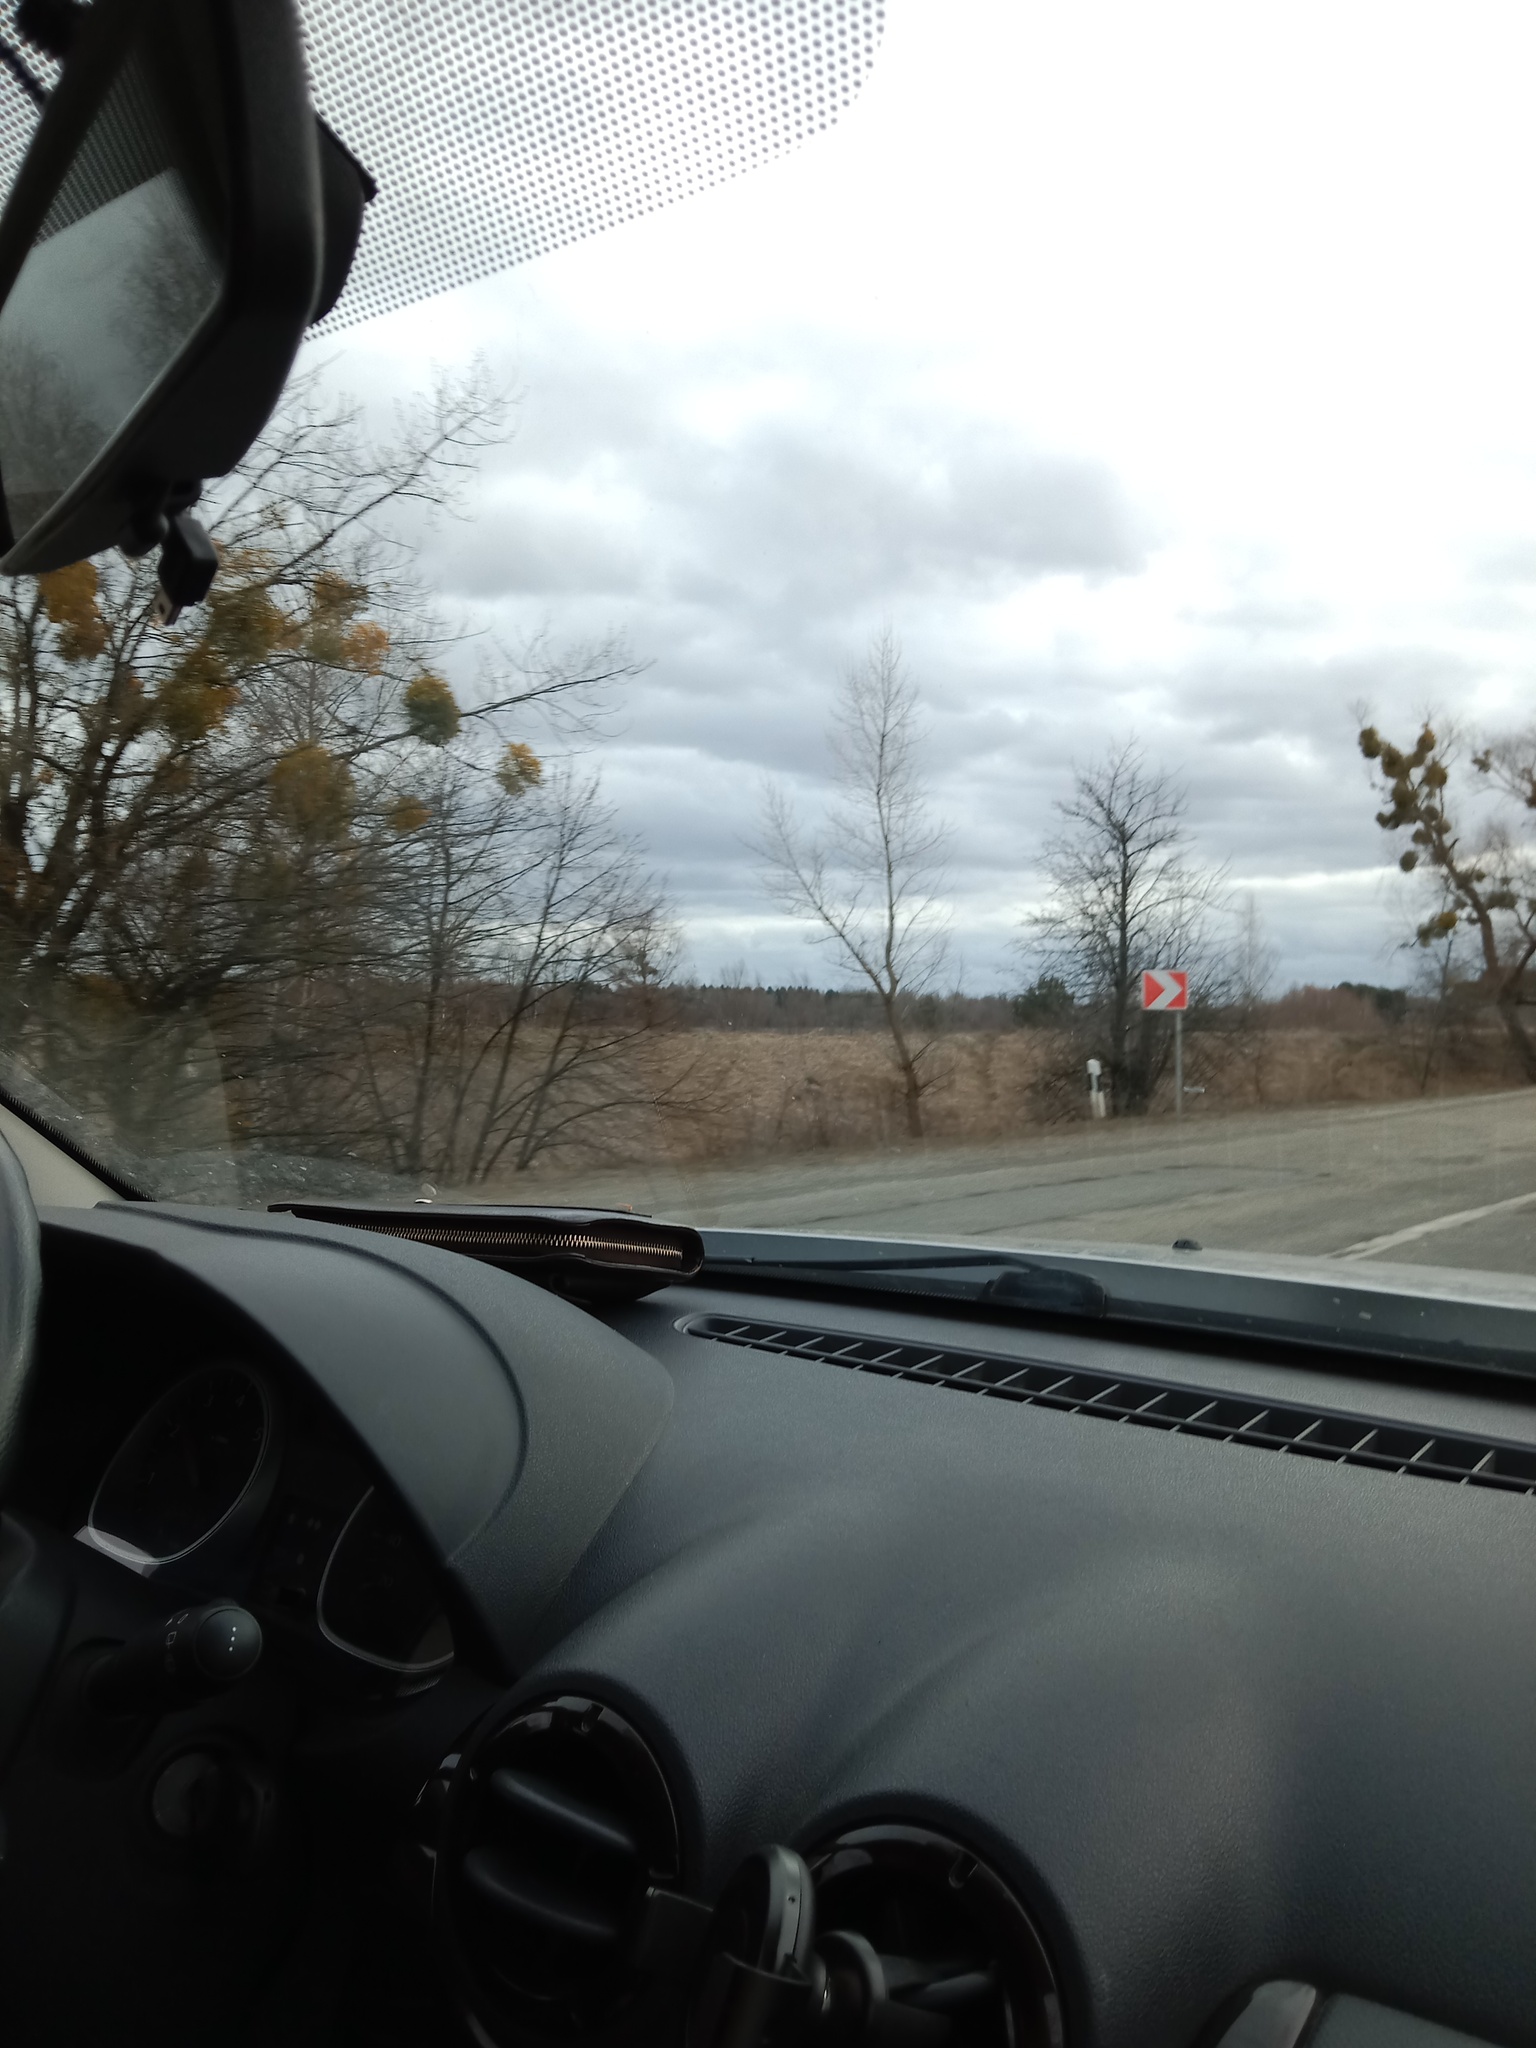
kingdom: Plantae
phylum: Tracheophyta
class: Magnoliopsida
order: Santalales
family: Viscaceae
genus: Viscum
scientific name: Viscum album
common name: Mistletoe
